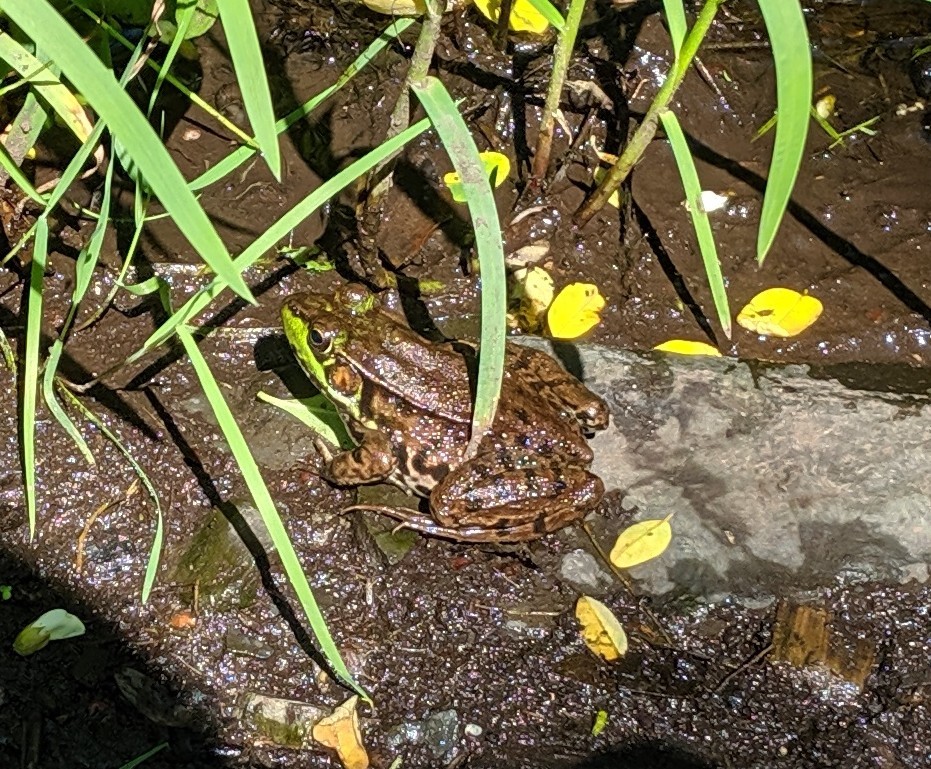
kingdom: Animalia
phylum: Chordata
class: Amphibia
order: Anura
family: Ranidae
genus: Lithobates
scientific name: Lithobates clamitans
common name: Green frog
